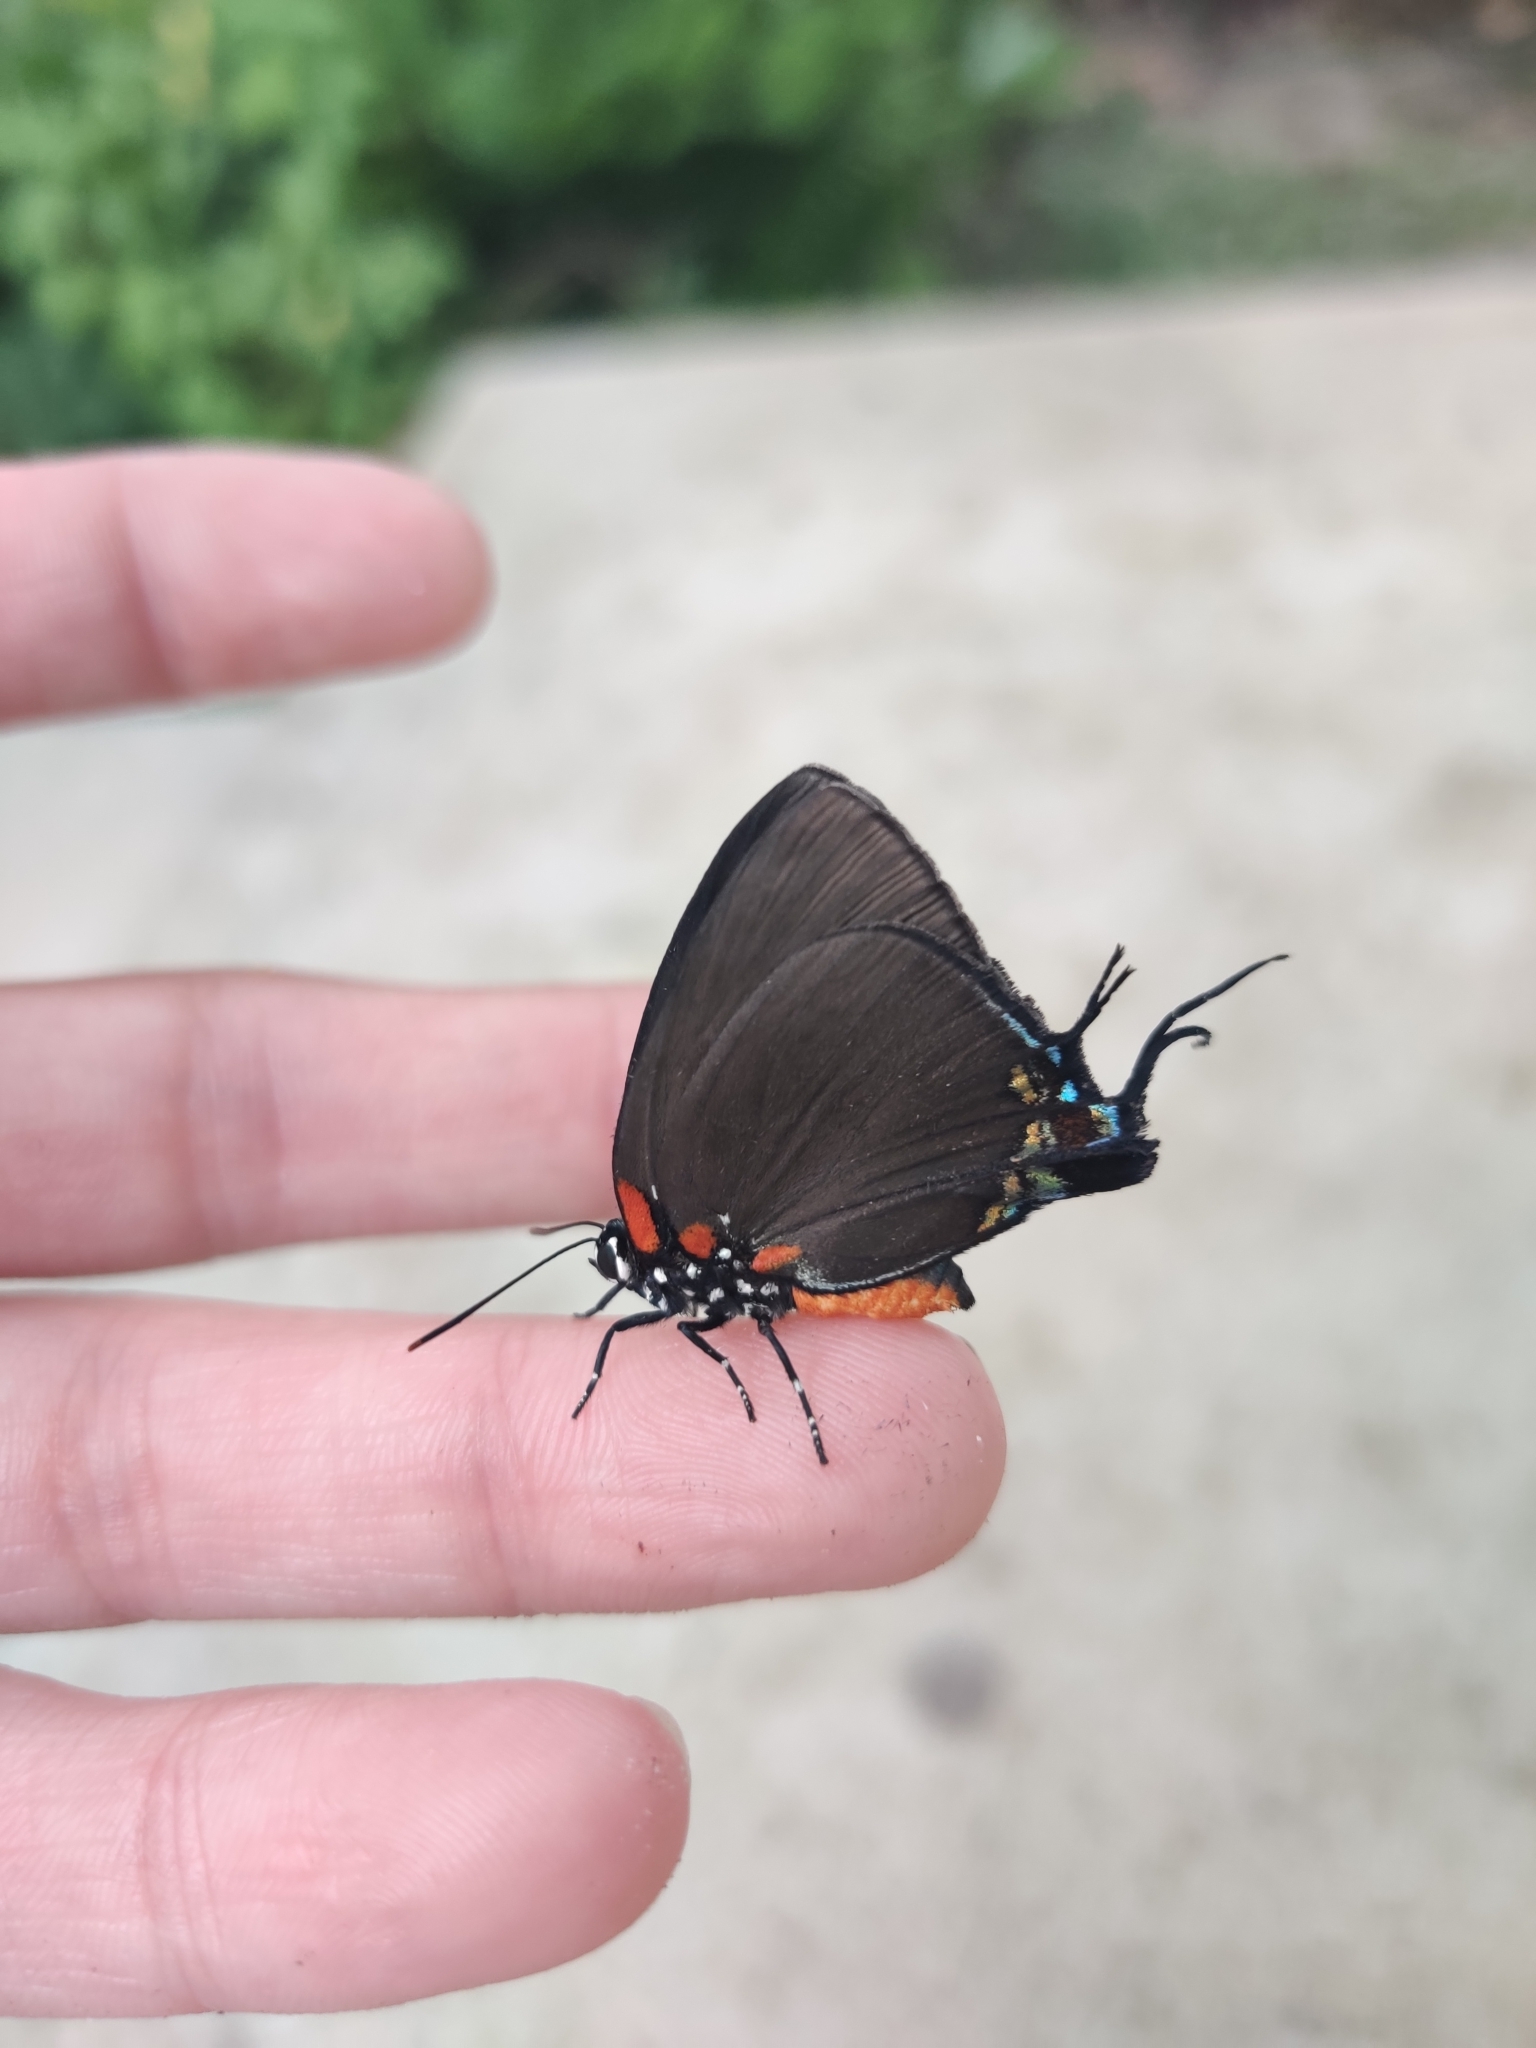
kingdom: Animalia
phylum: Arthropoda
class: Insecta
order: Lepidoptera
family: Lycaenidae
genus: Atlides
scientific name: Atlides halesus
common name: Great purple hairstreak
